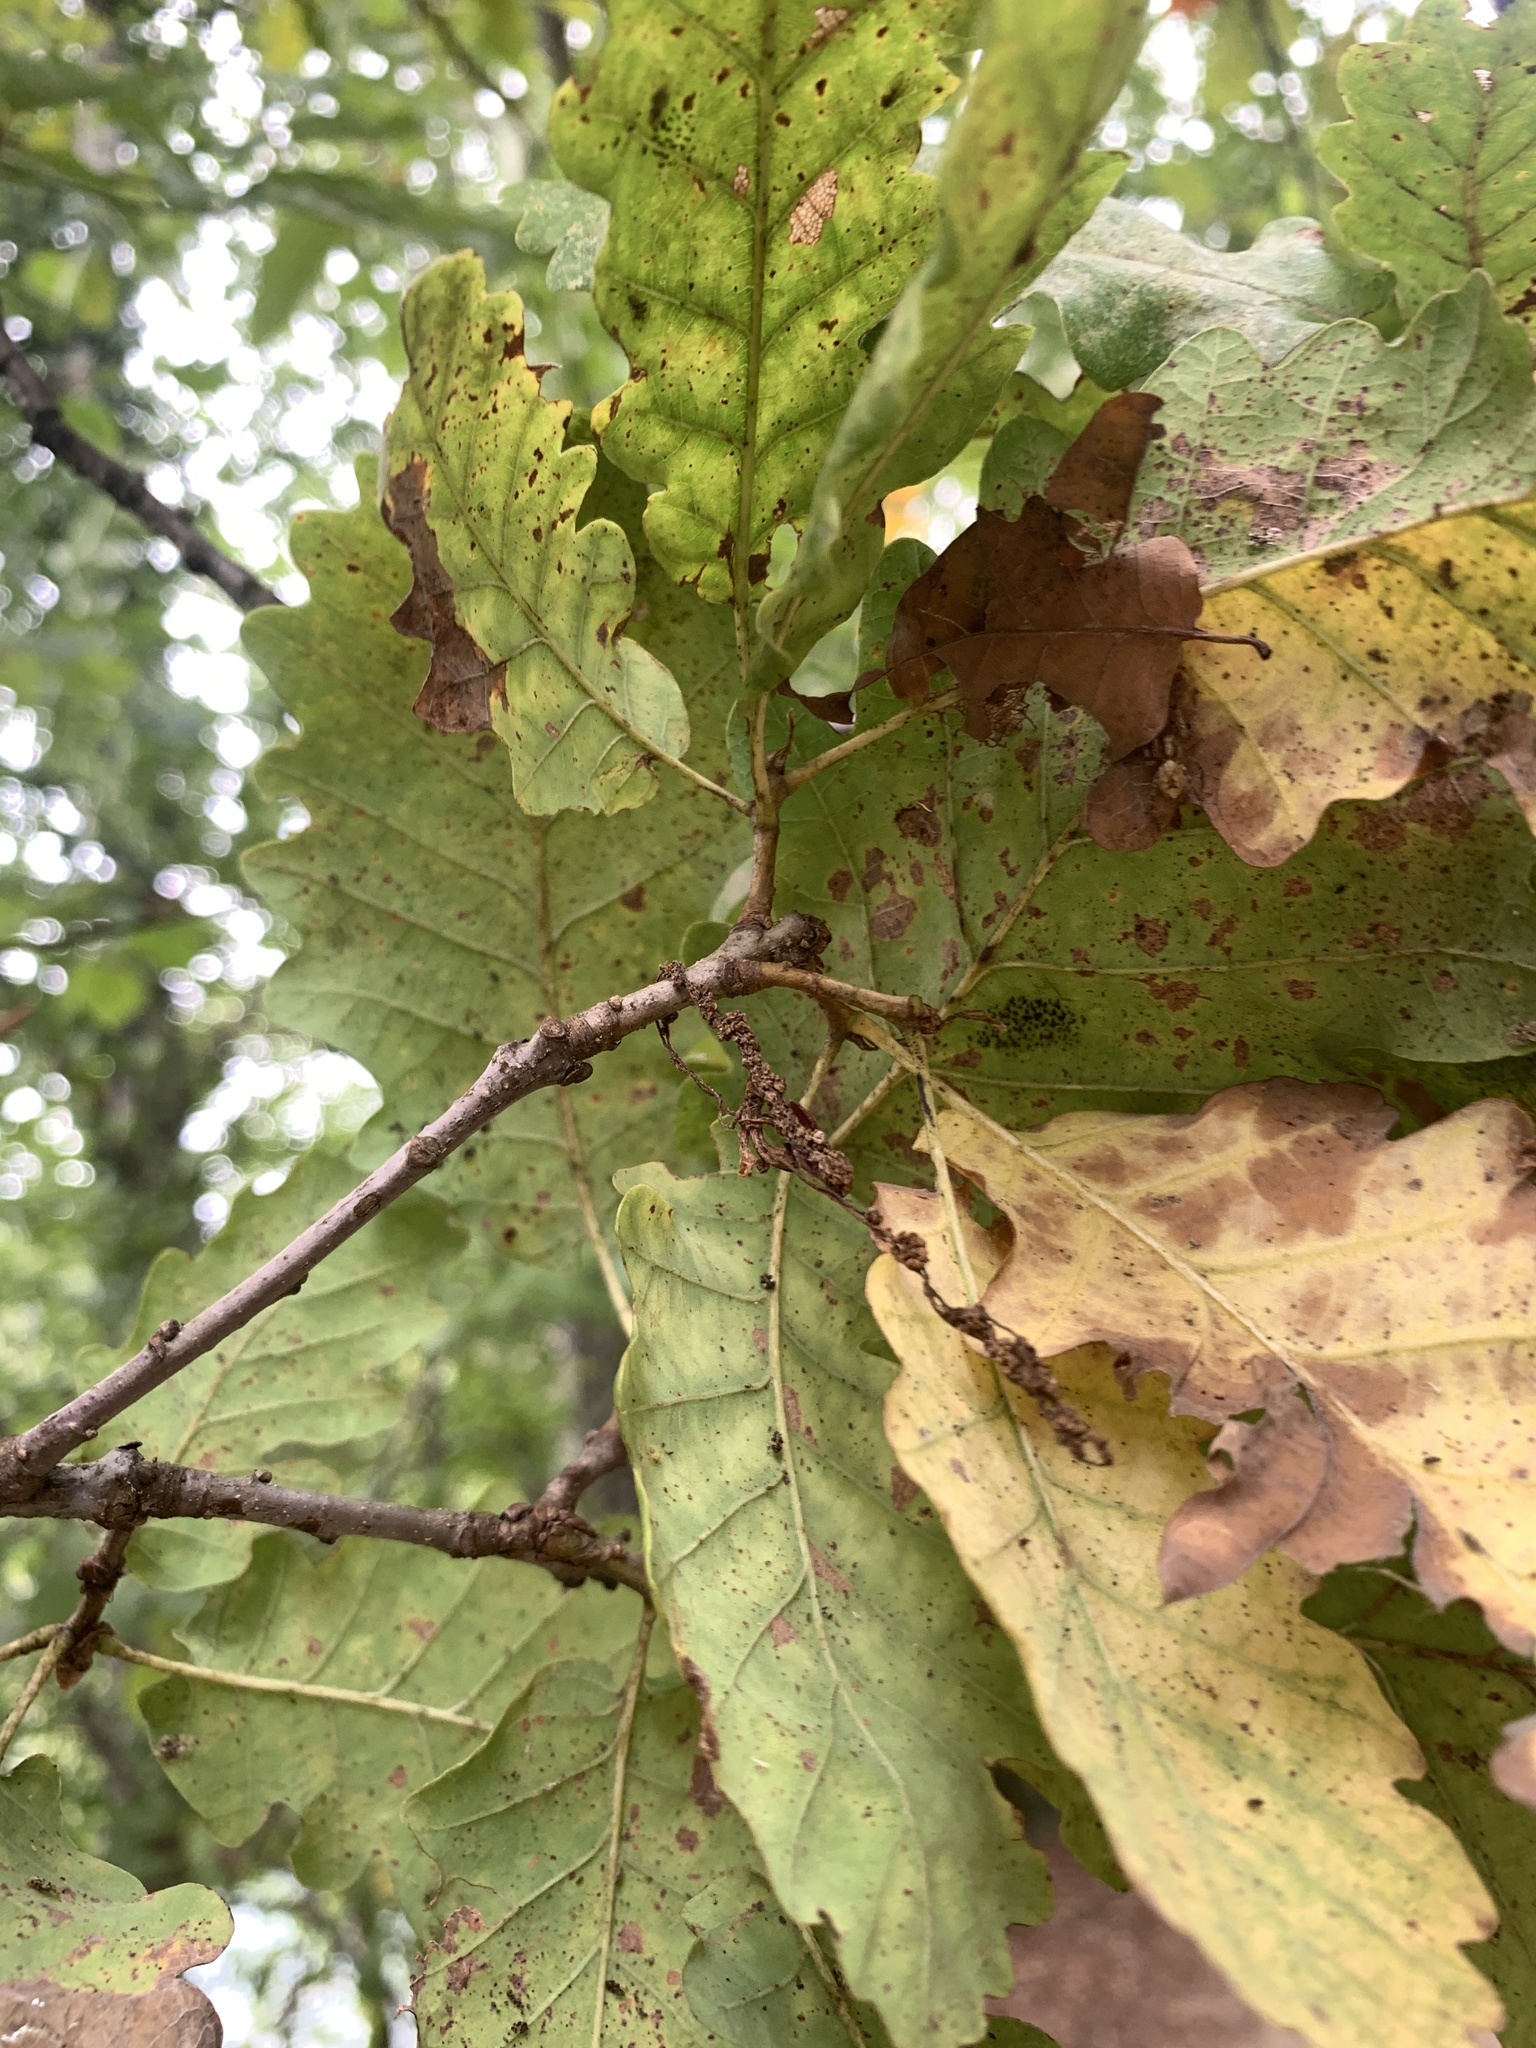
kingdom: Plantae
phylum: Tracheophyta
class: Magnoliopsida
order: Fagales
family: Fagaceae
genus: Quercus
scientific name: Quercus petraea
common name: Sessile oak
